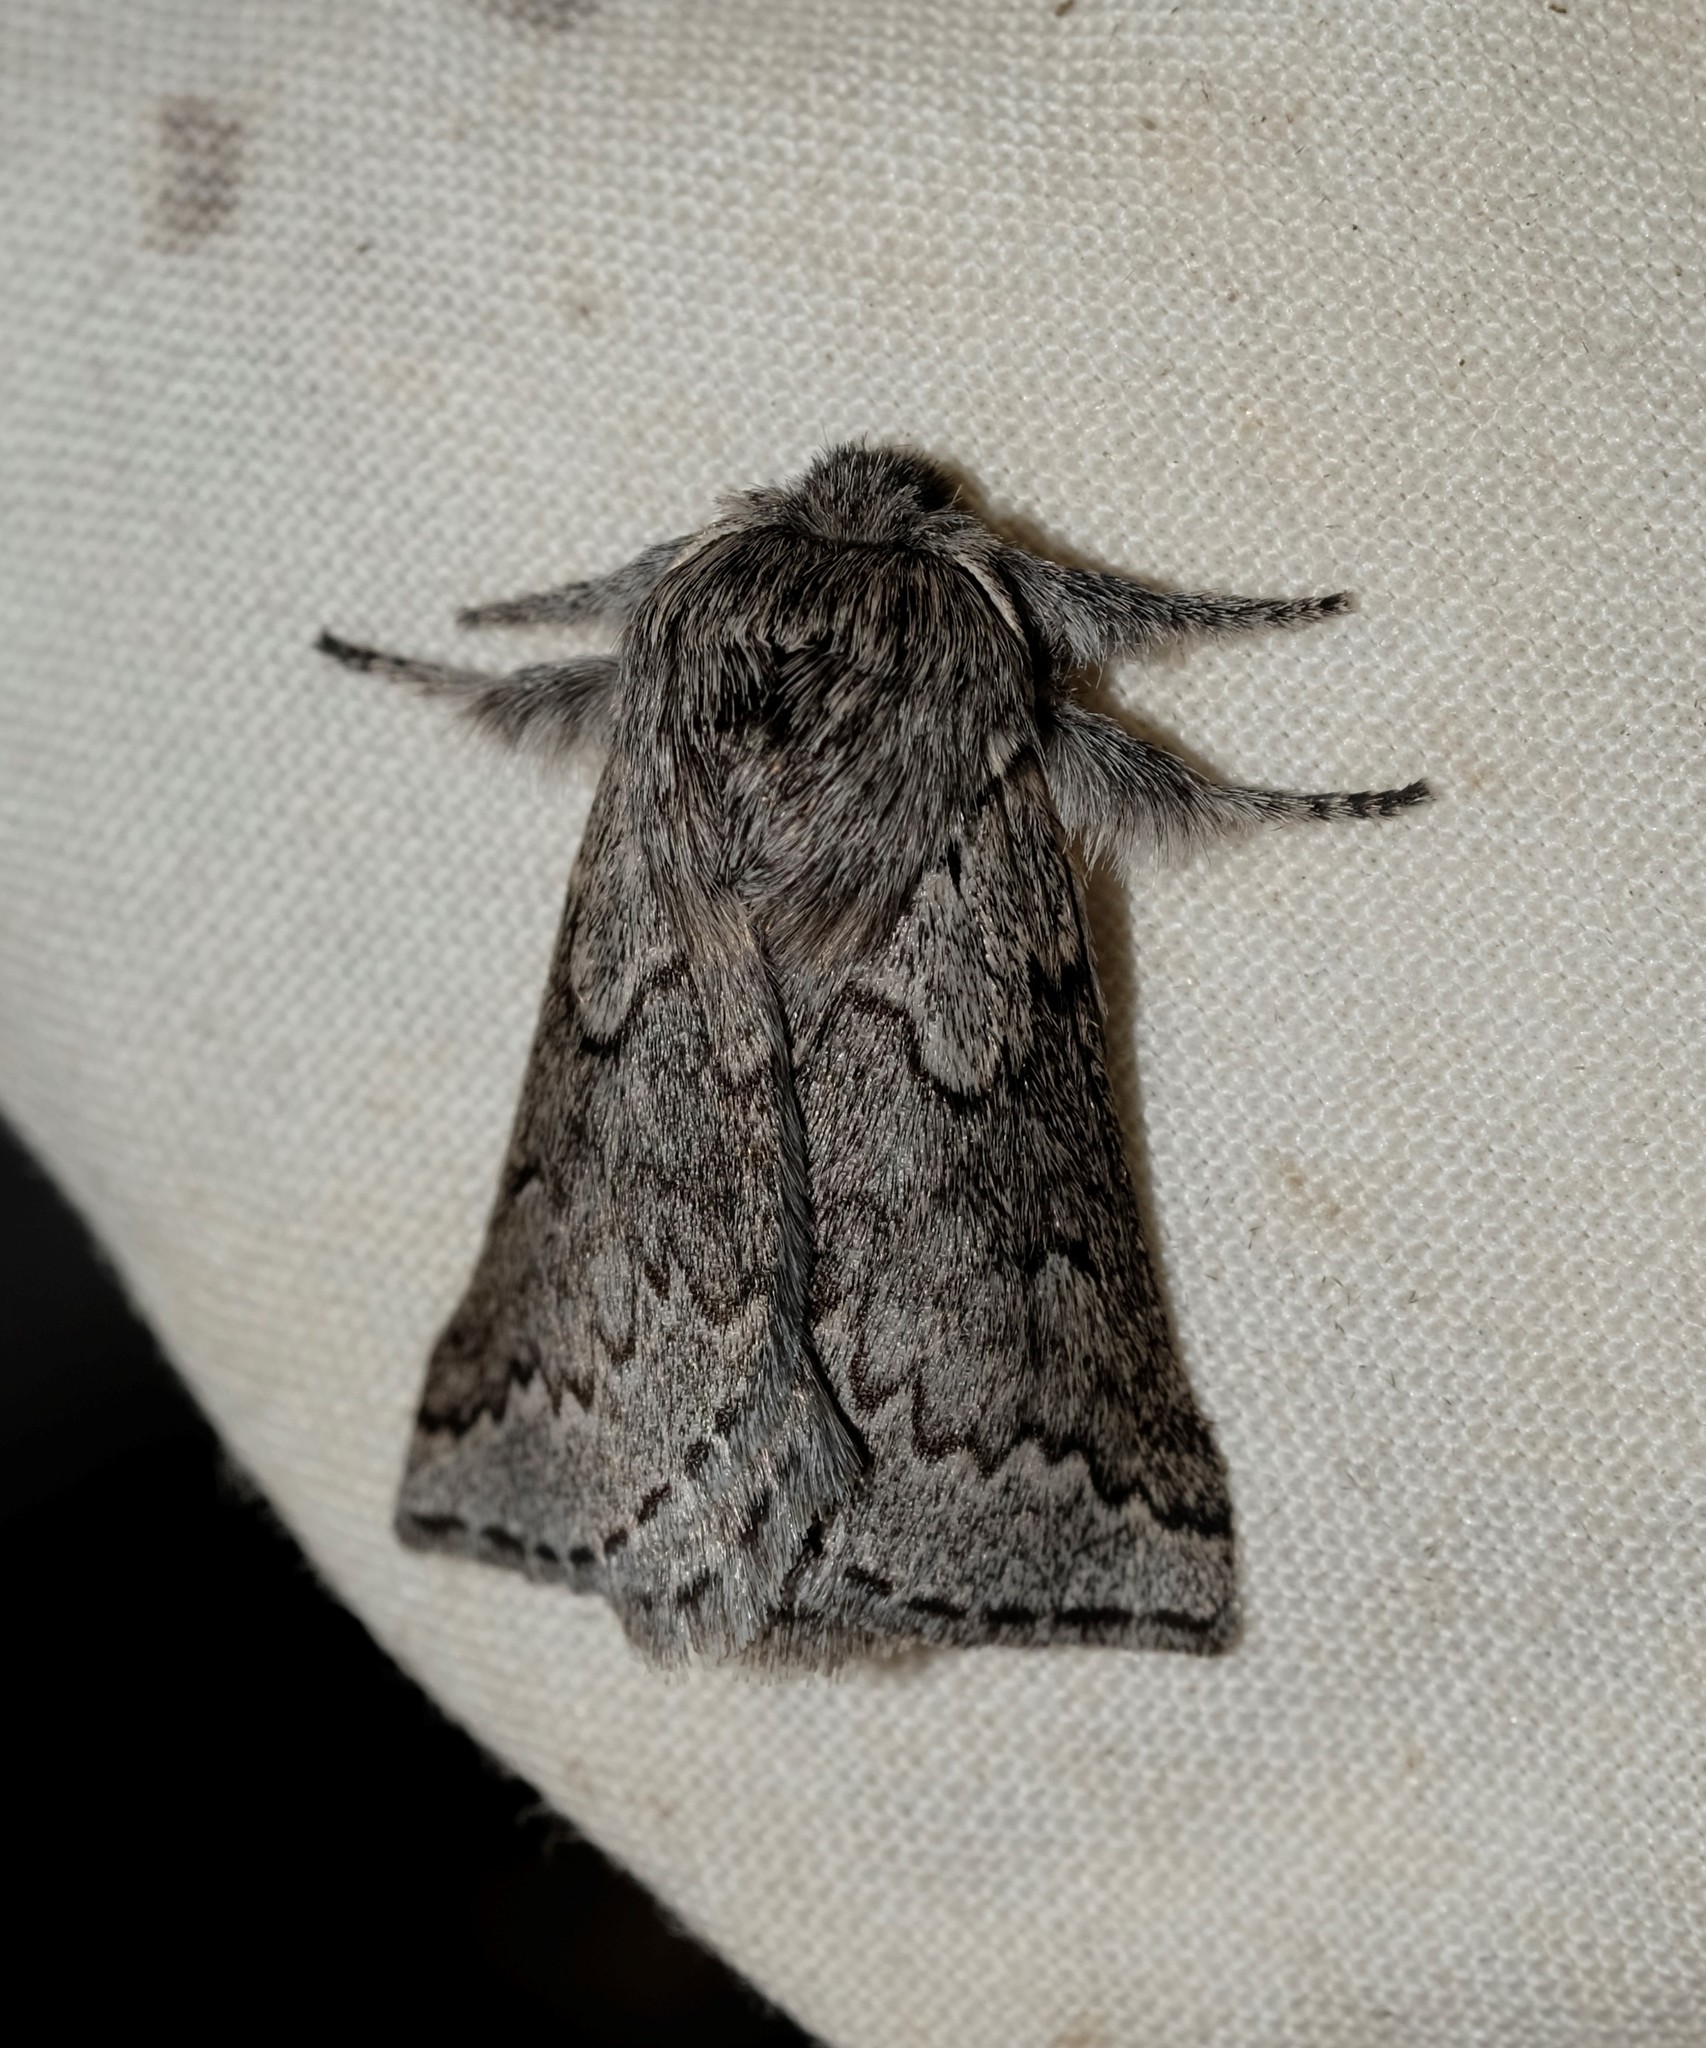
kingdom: Animalia
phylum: Arthropoda
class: Insecta
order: Lepidoptera
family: Anthelidae
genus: Munychryia
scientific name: Munychryia senicula
